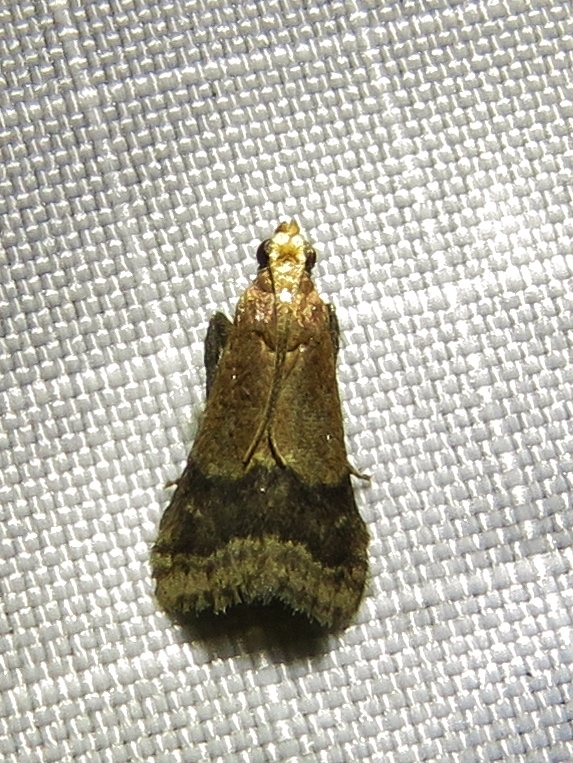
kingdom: Animalia
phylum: Arthropoda
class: Insecta
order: Lepidoptera
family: Pyralidae
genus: Eulogia
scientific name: Eulogia ochrifrontella
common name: Broad-banded eulogia moth
